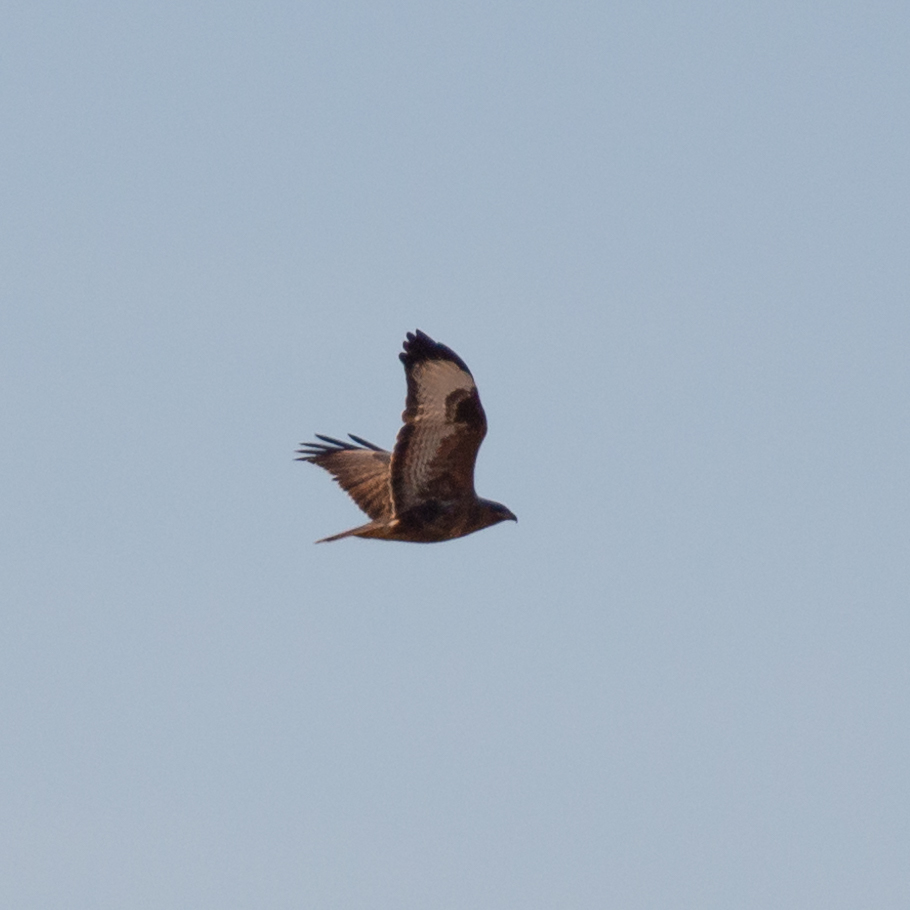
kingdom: Animalia
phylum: Chordata
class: Aves
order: Accipitriformes
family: Accipitridae
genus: Buteo
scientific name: Buteo buteo
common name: Common buzzard
